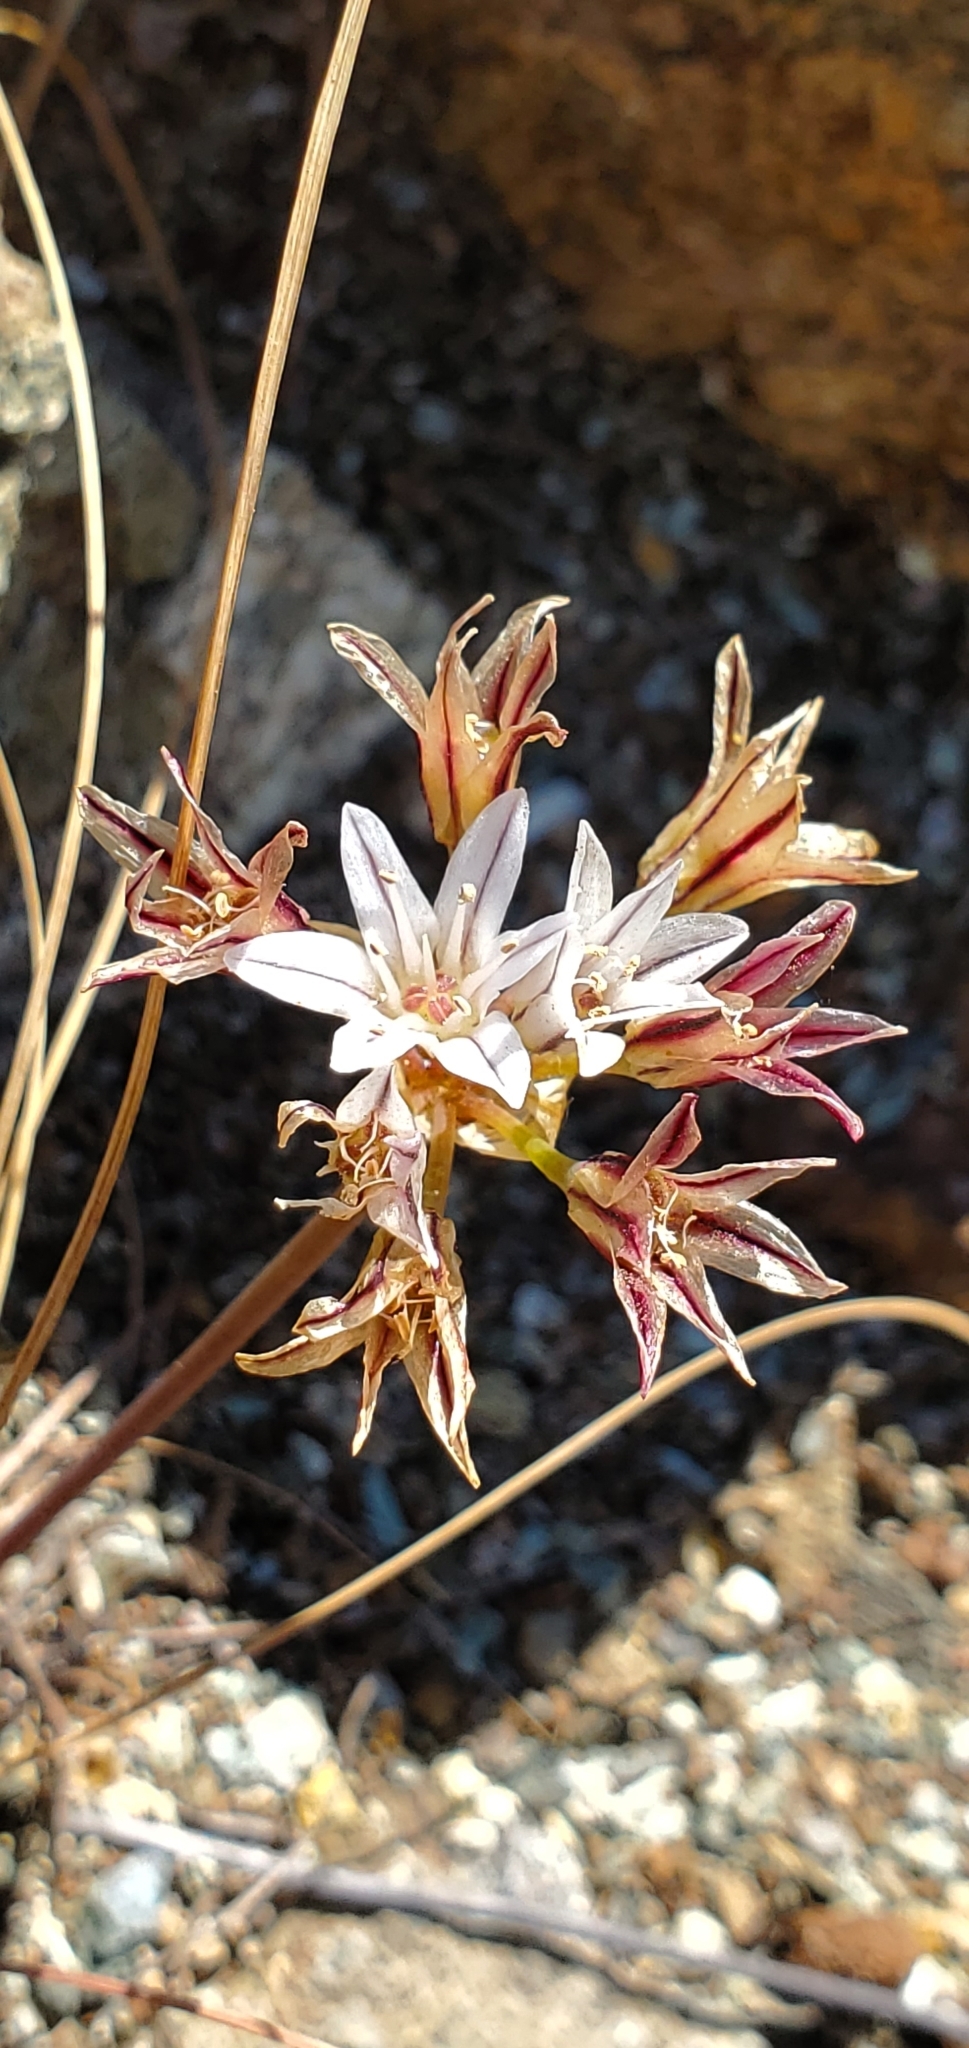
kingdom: Plantae
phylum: Tracheophyta
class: Liliopsida
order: Asparagales
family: Amaryllidaceae
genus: Allium
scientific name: Allium lacunosum
